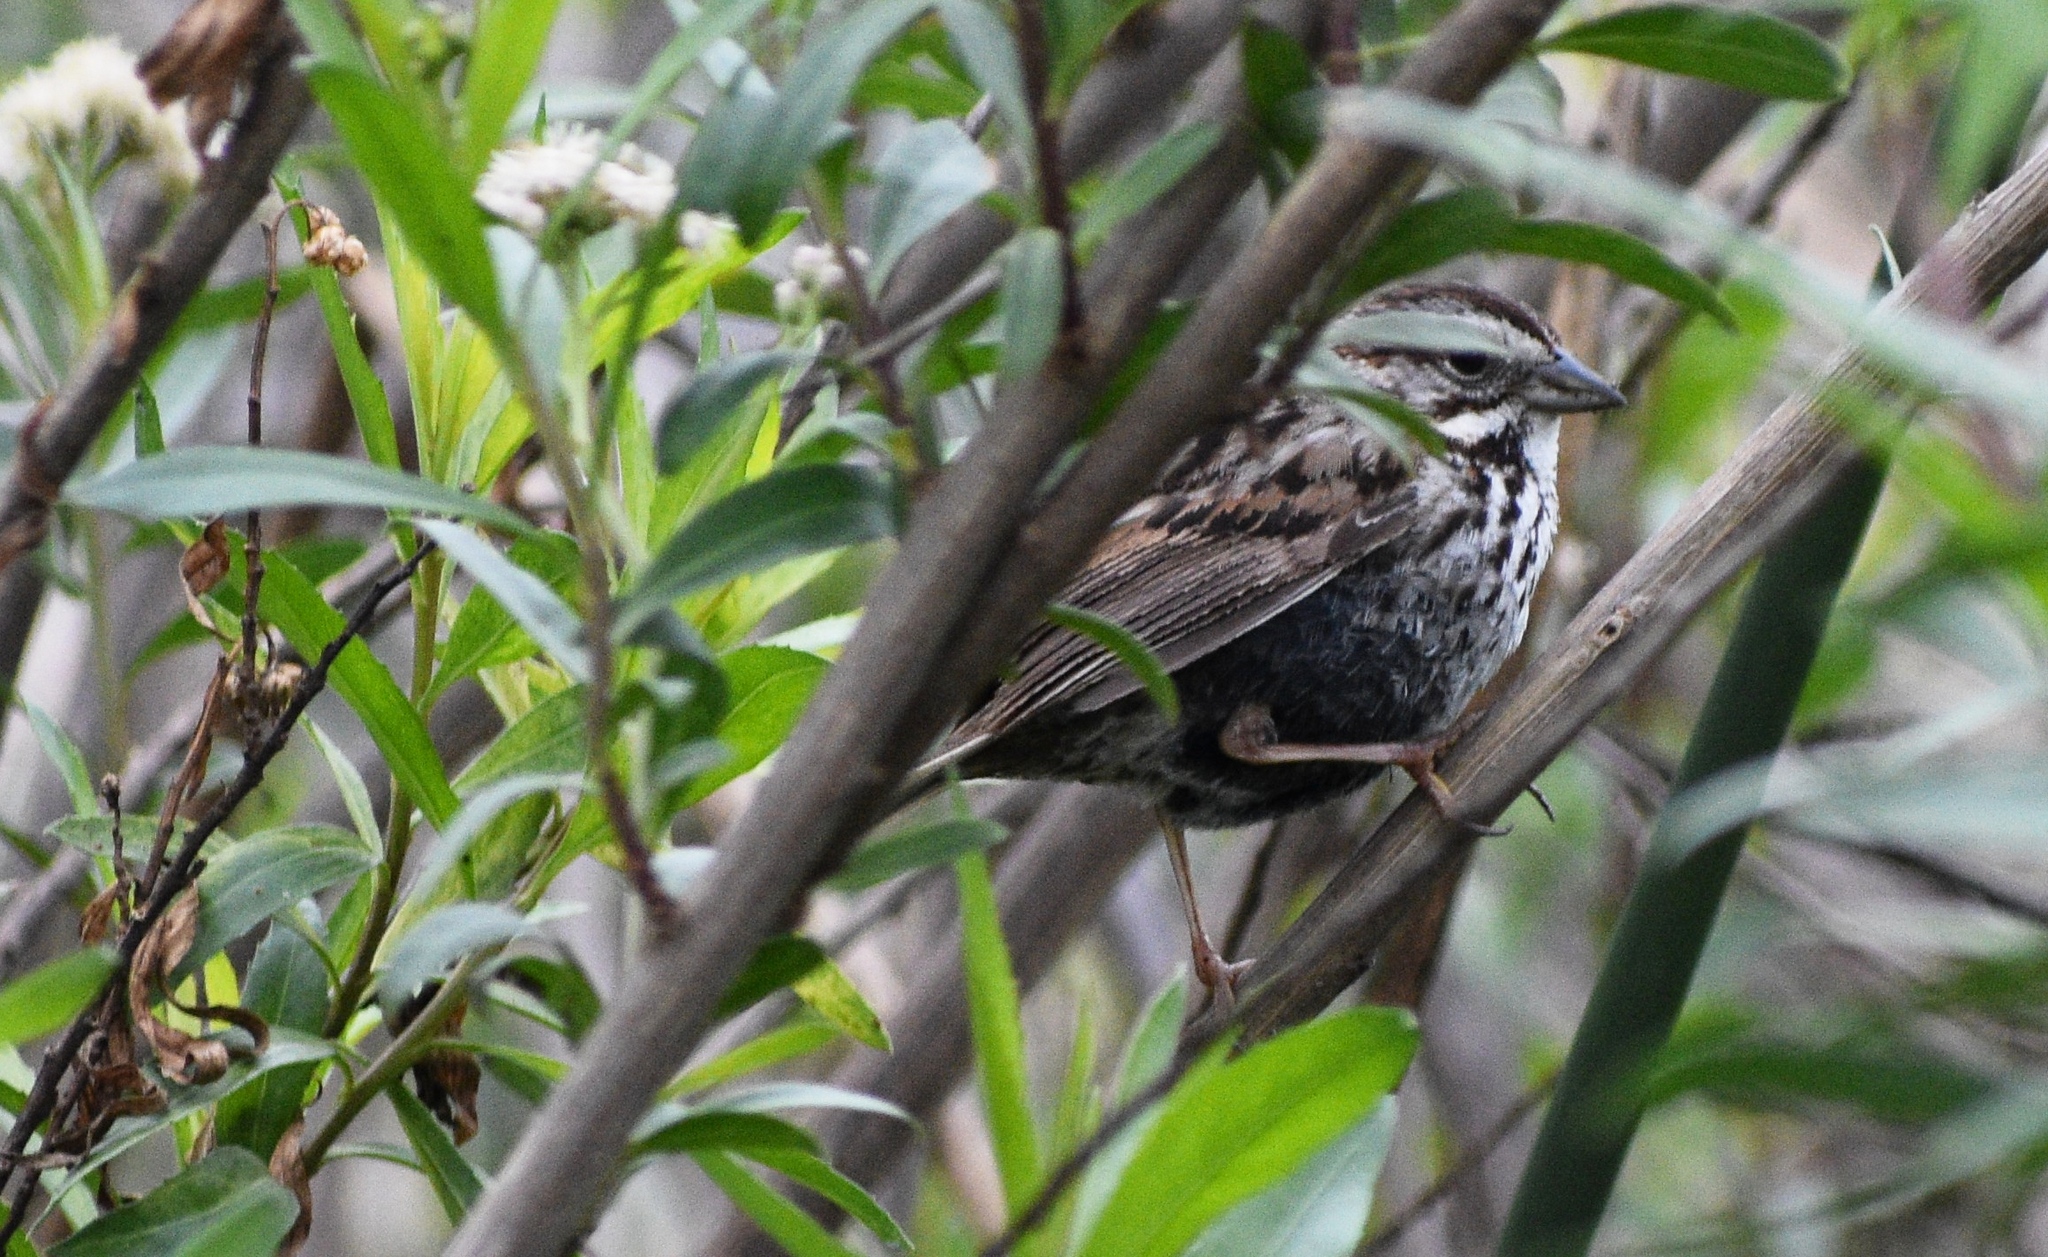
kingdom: Animalia
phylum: Chordata
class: Aves
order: Passeriformes
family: Passerellidae
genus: Melospiza
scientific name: Melospiza melodia
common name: Song sparrow
